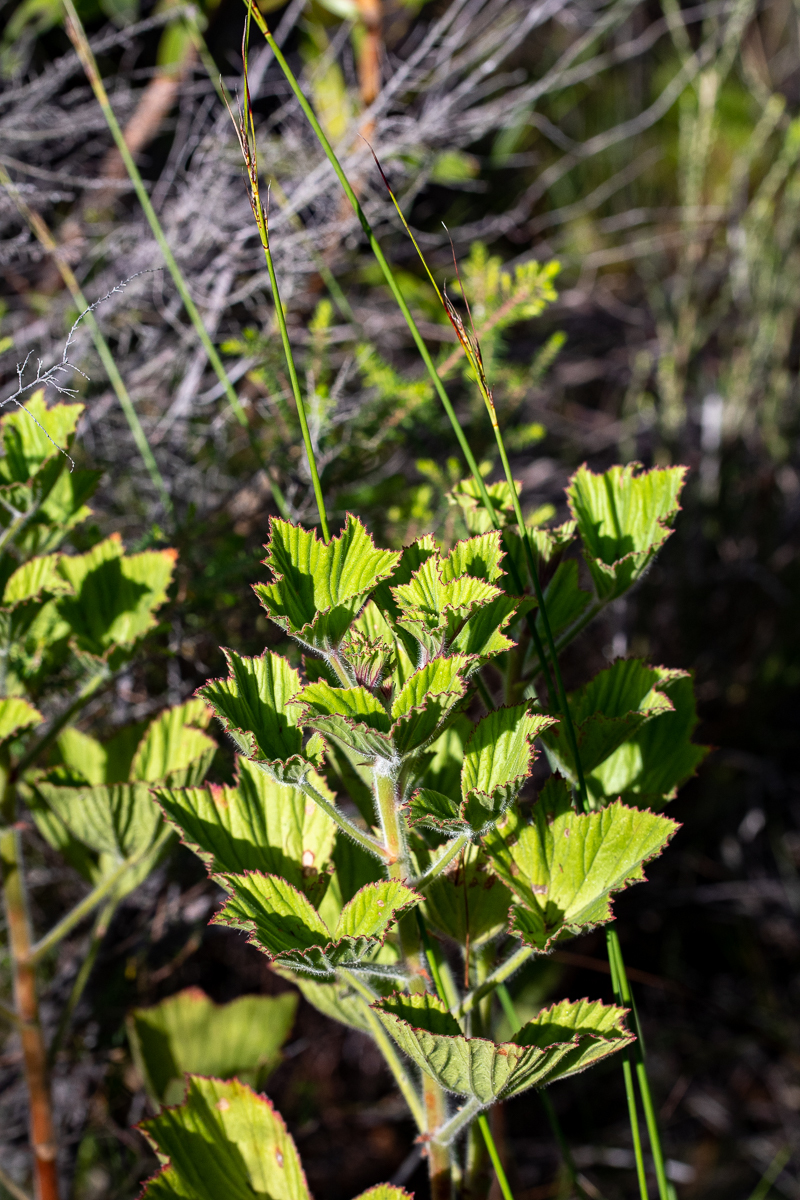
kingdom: Plantae
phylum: Tracheophyta
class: Magnoliopsida
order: Geraniales
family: Geraniaceae
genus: Pelargonium
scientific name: Pelargonium cucullatum
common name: Tree pelargonium
